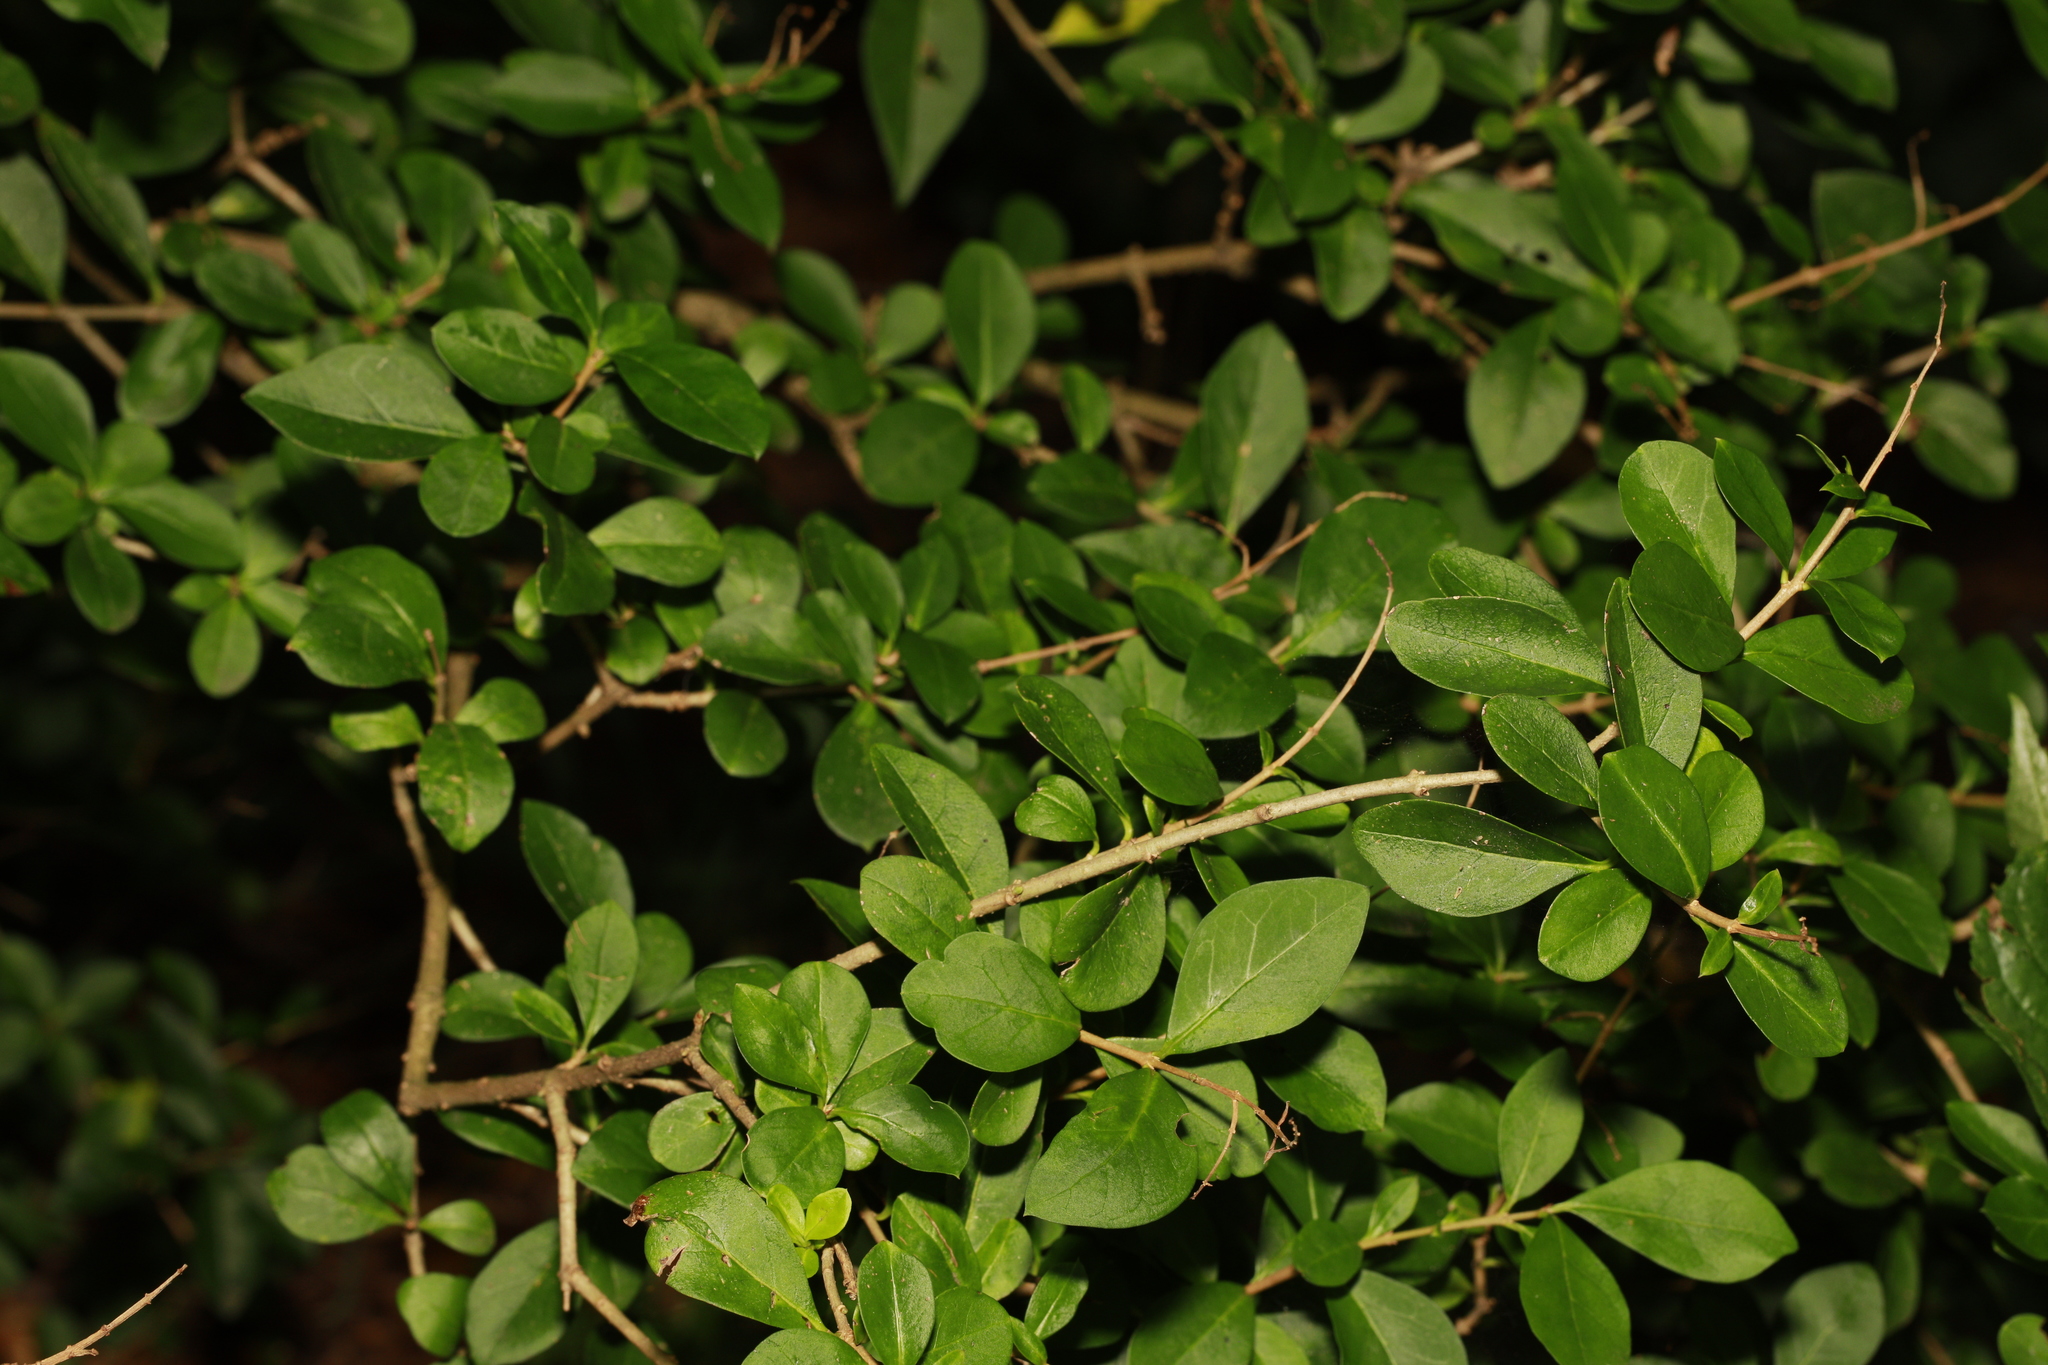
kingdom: Plantae
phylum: Tracheophyta
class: Magnoliopsida
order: Lamiales
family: Oleaceae
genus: Ligustrum
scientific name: Ligustrum ovalifolium
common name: California privet
